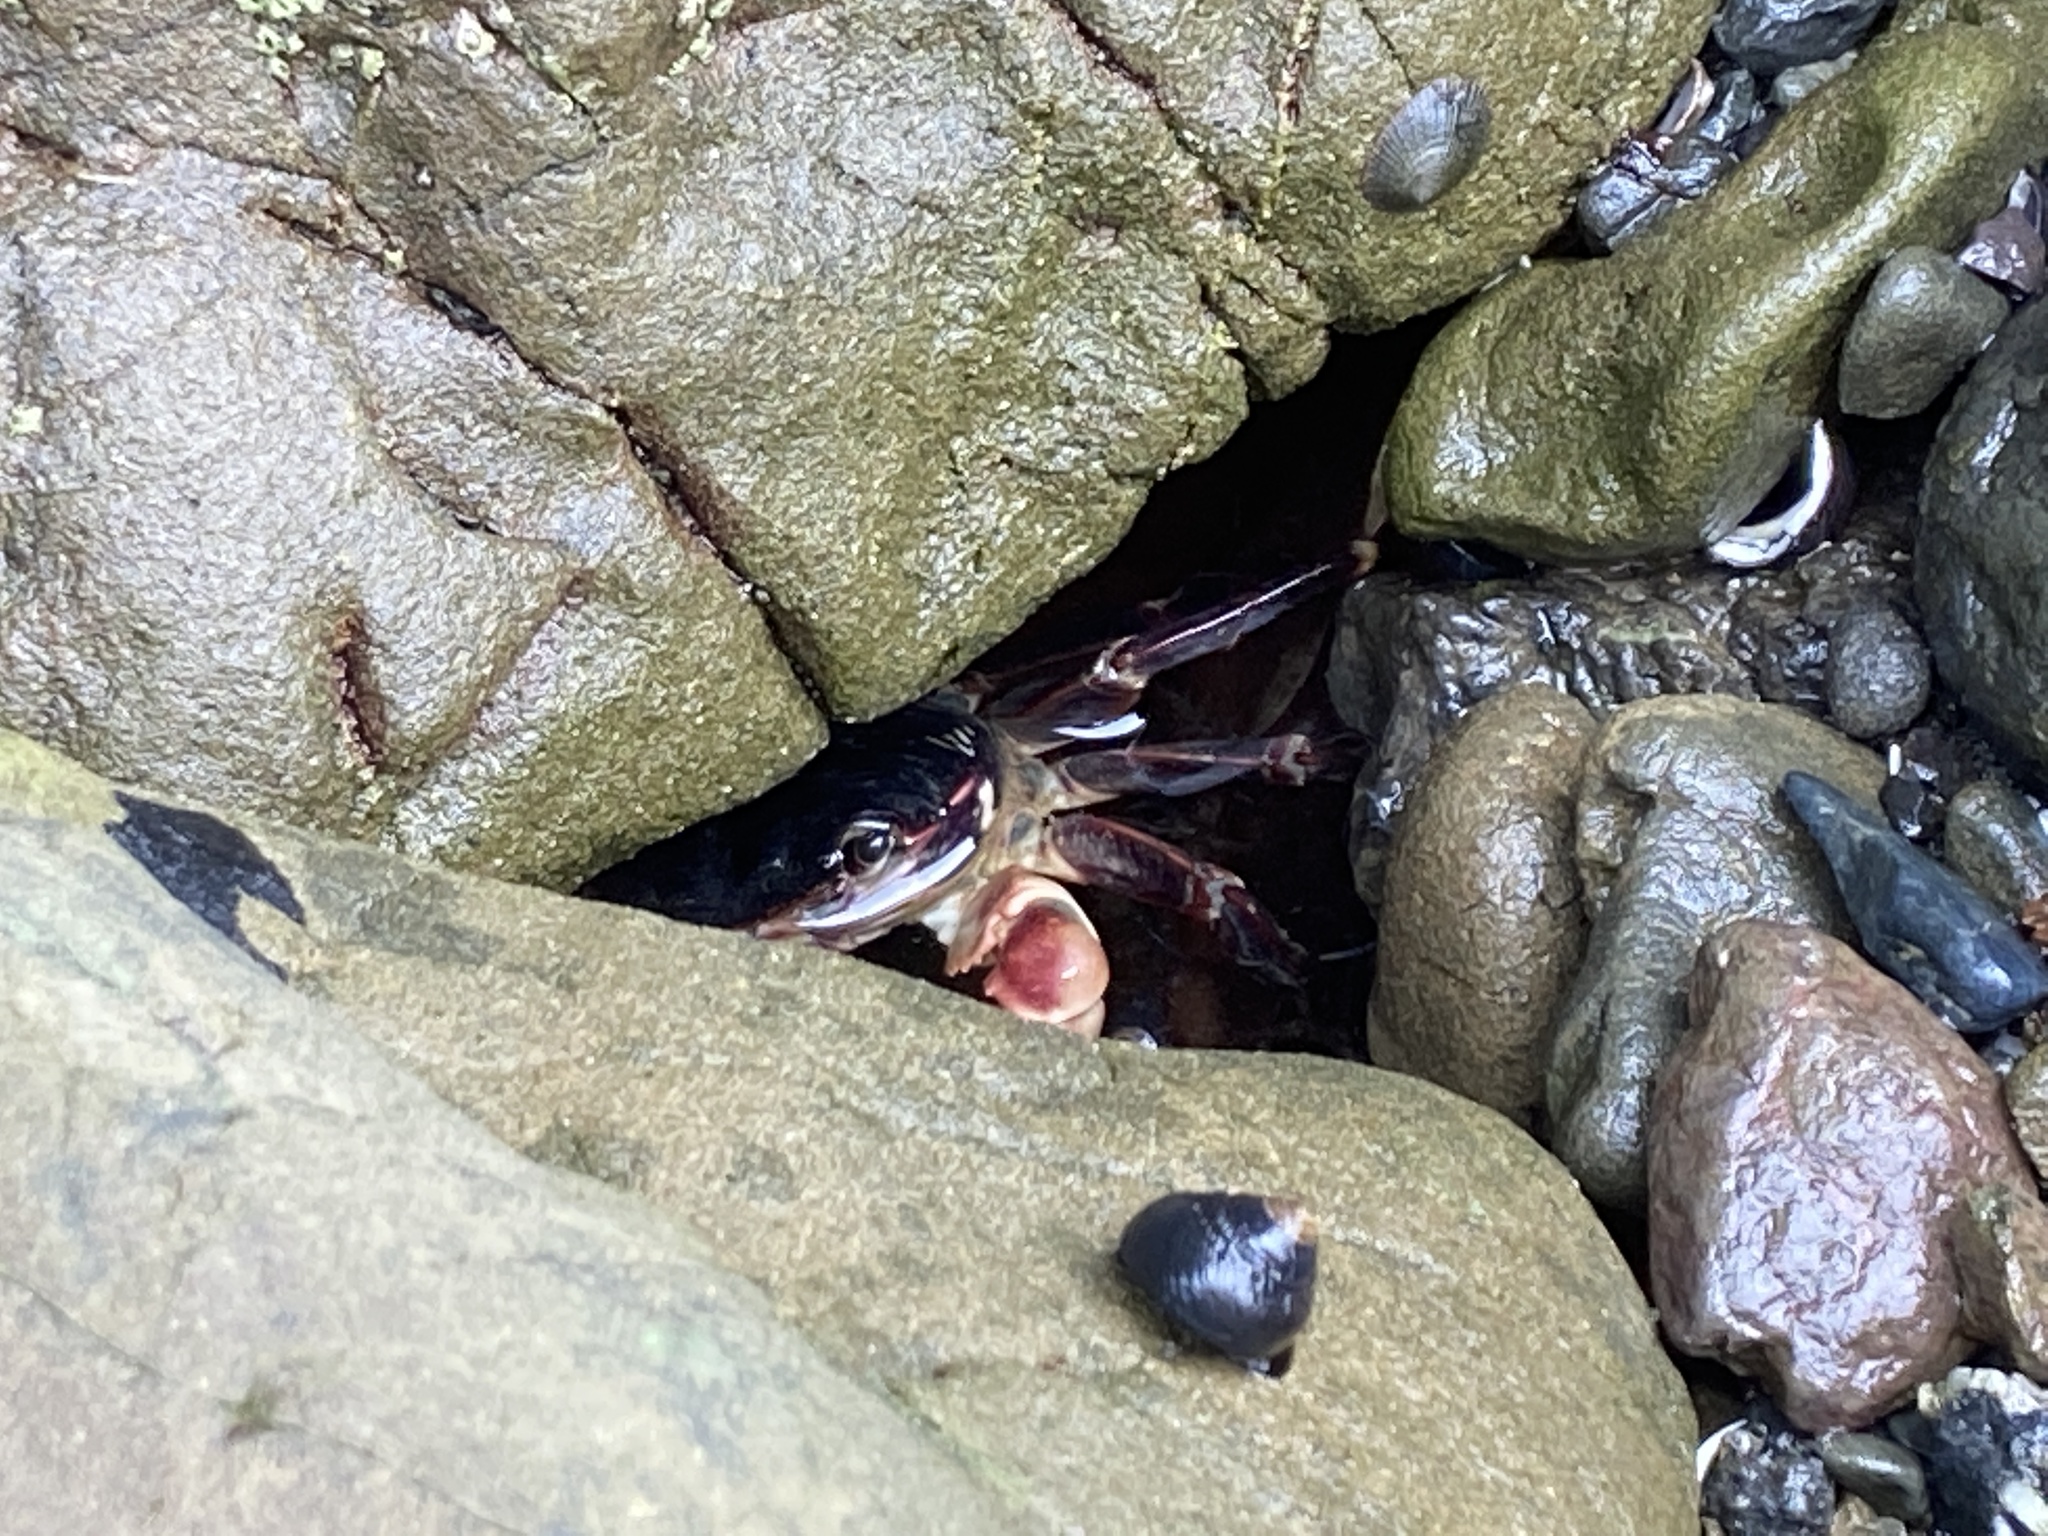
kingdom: Animalia
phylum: Arthropoda
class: Malacostraca
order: Decapoda
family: Grapsidae
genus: Pachygrapsus
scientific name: Pachygrapsus crassipes
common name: Striped shore crab
